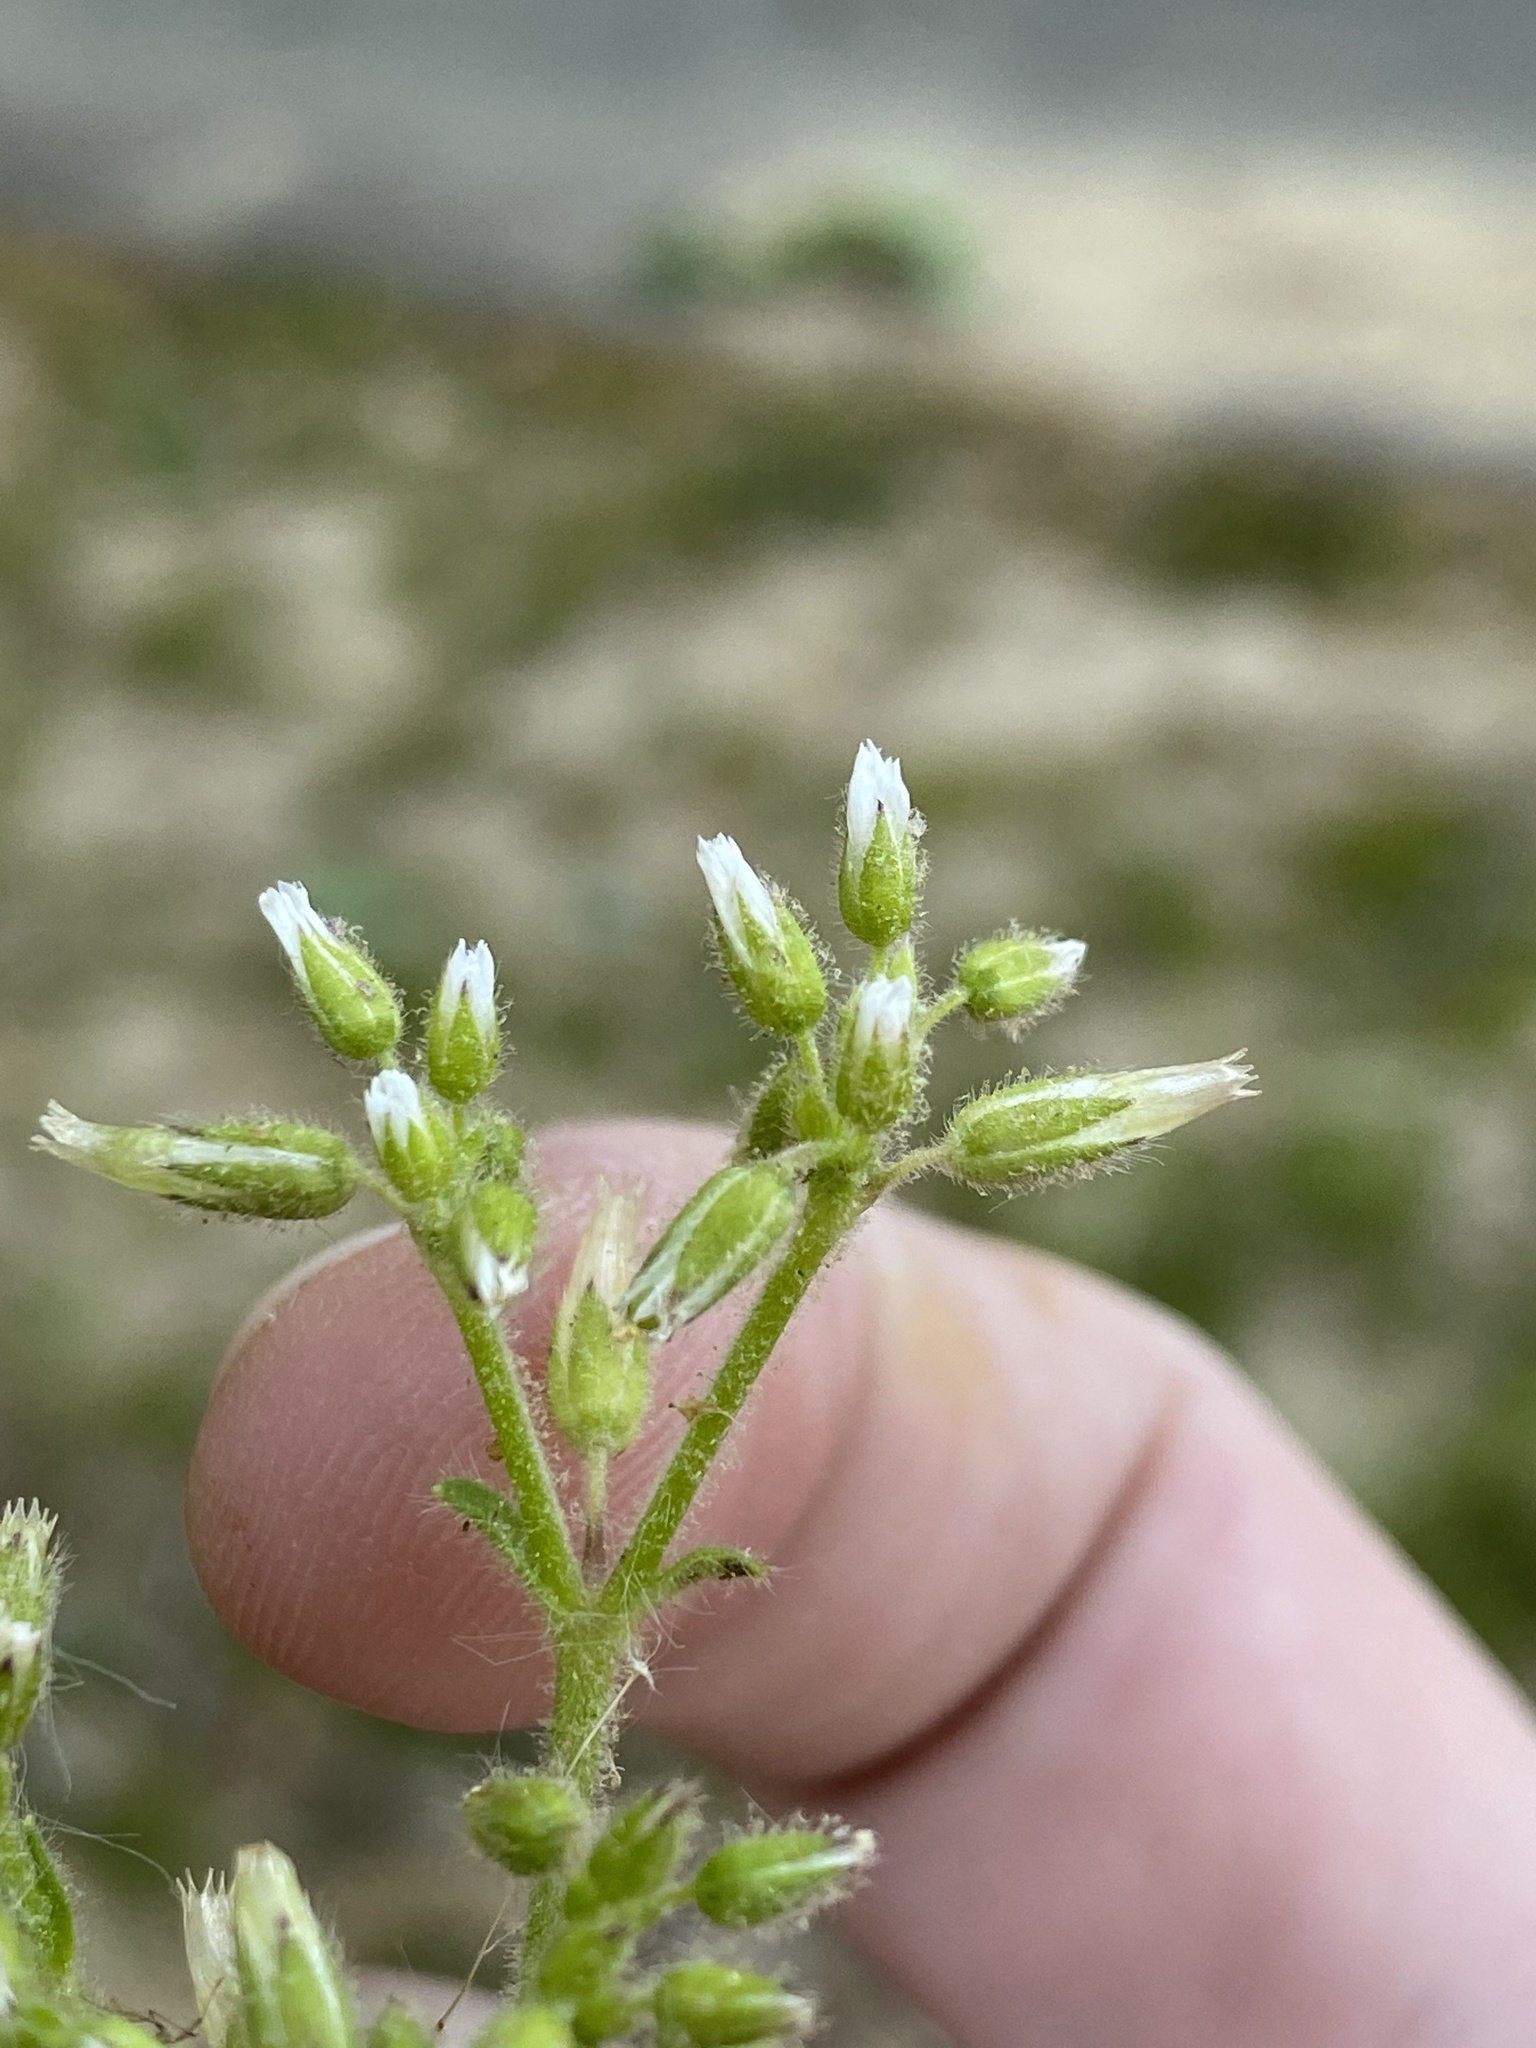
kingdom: Plantae
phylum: Tracheophyta
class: Magnoliopsida
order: Caryophyllales
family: Caryophyllaceae
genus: Cerastium
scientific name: Cerastium glomeratum
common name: Sticky chickweed
